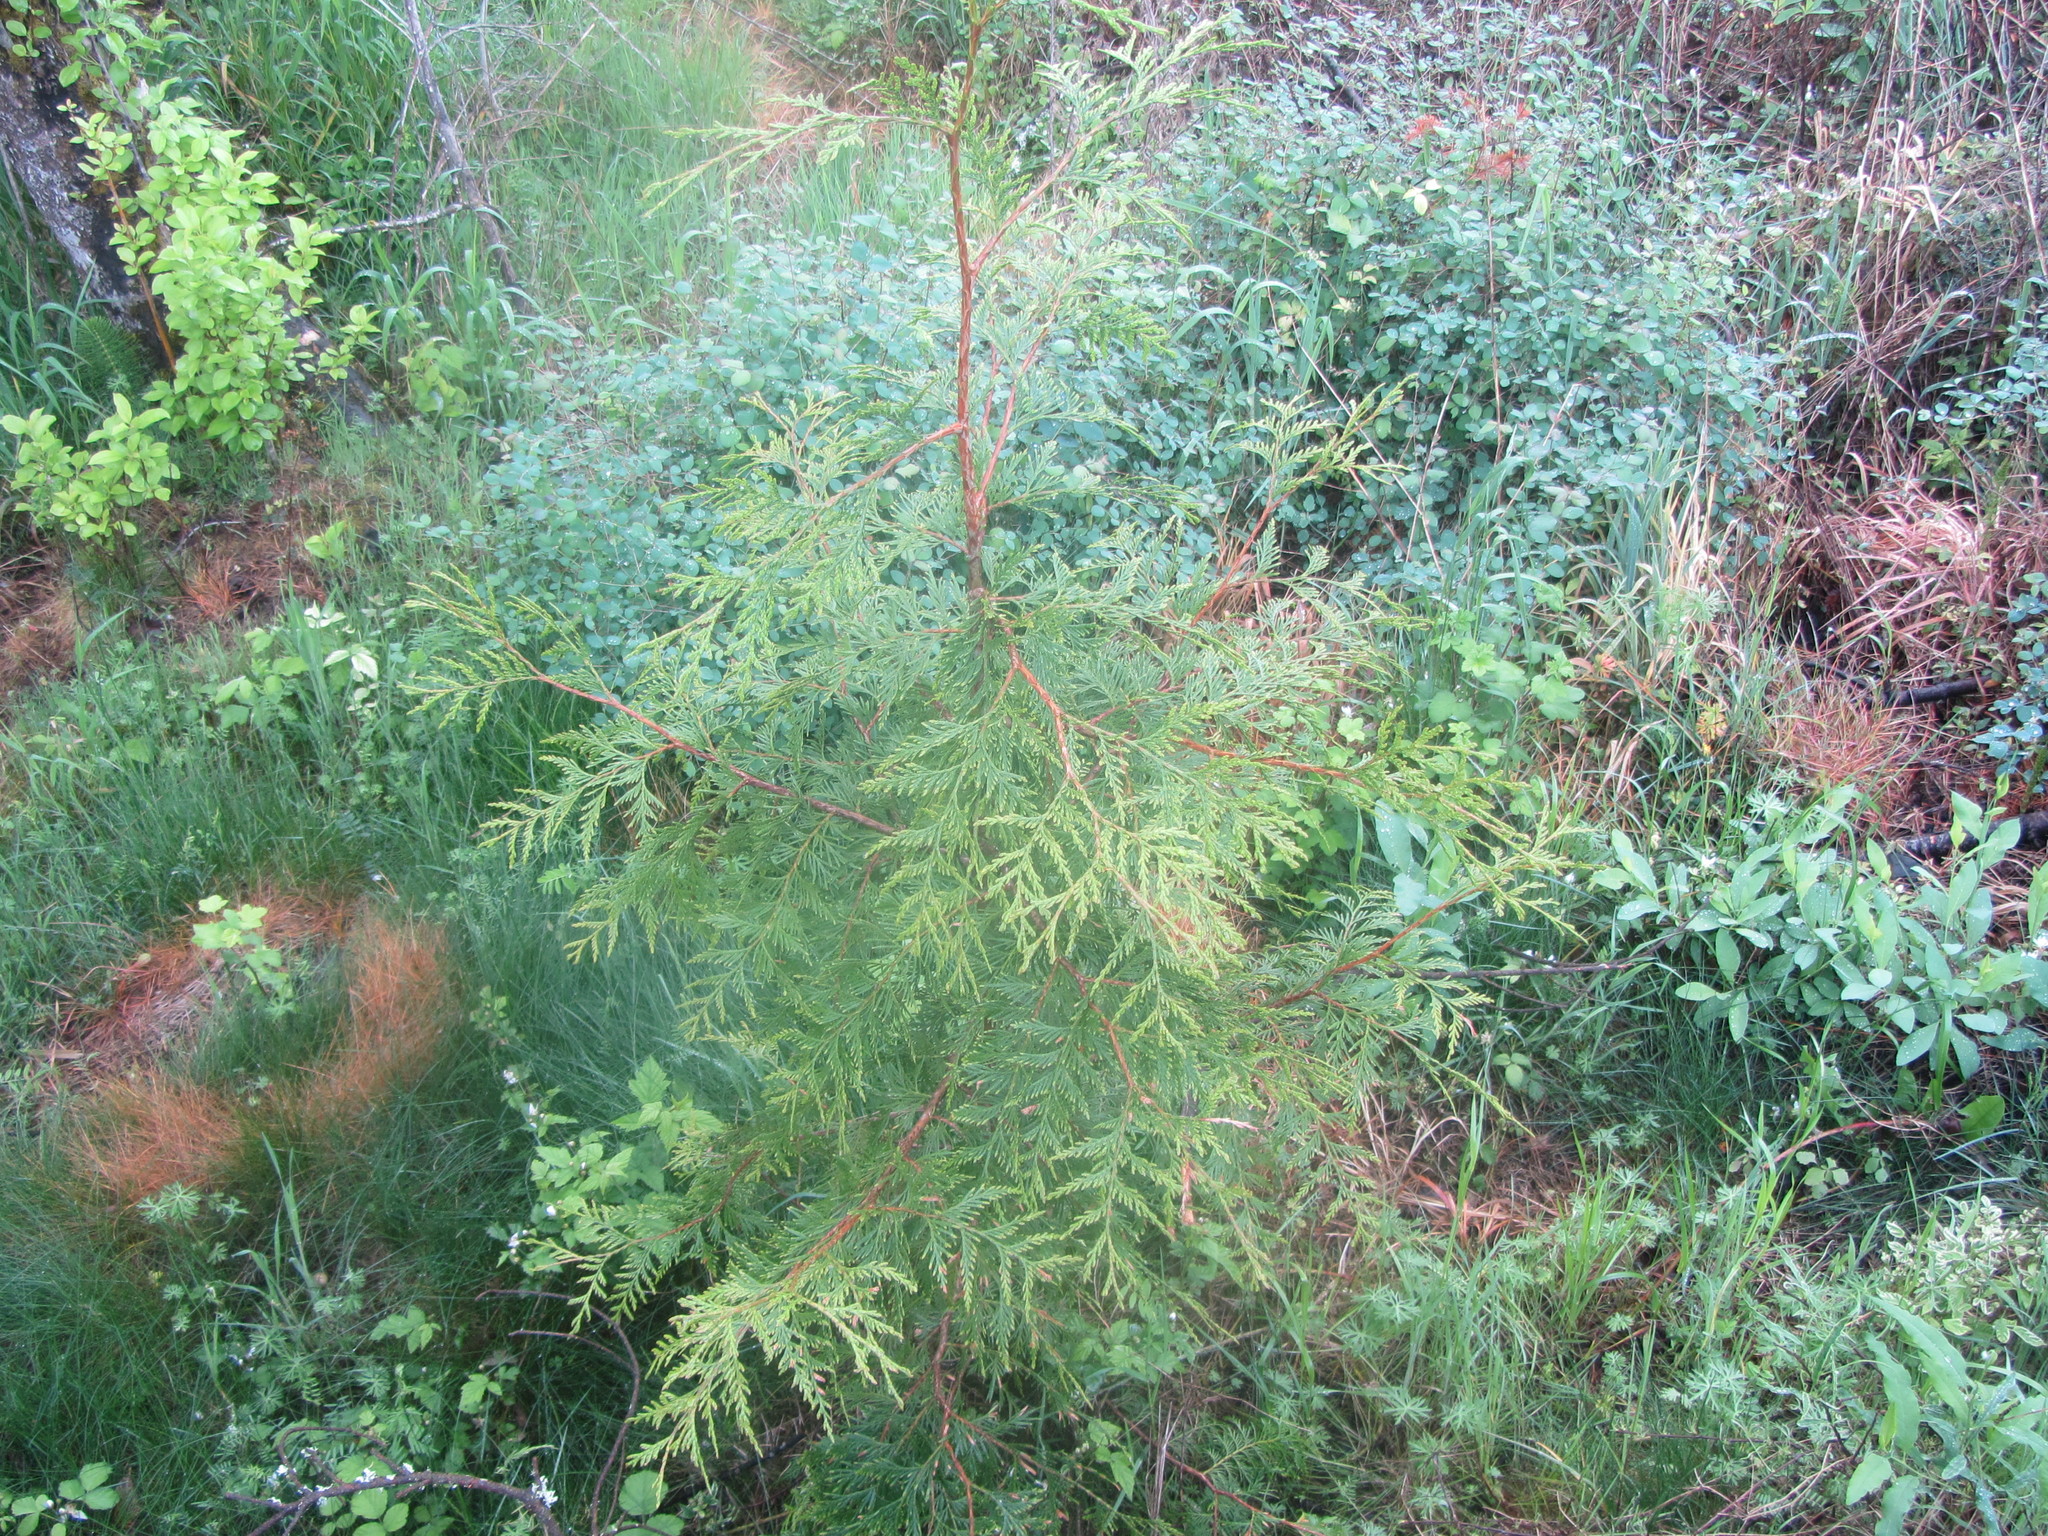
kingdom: Plantae
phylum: Tracheophyta
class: Pinopsida
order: Pinales
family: Cupressaceae
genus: Thuja
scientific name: Thuja plicata
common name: Western red-cedar
